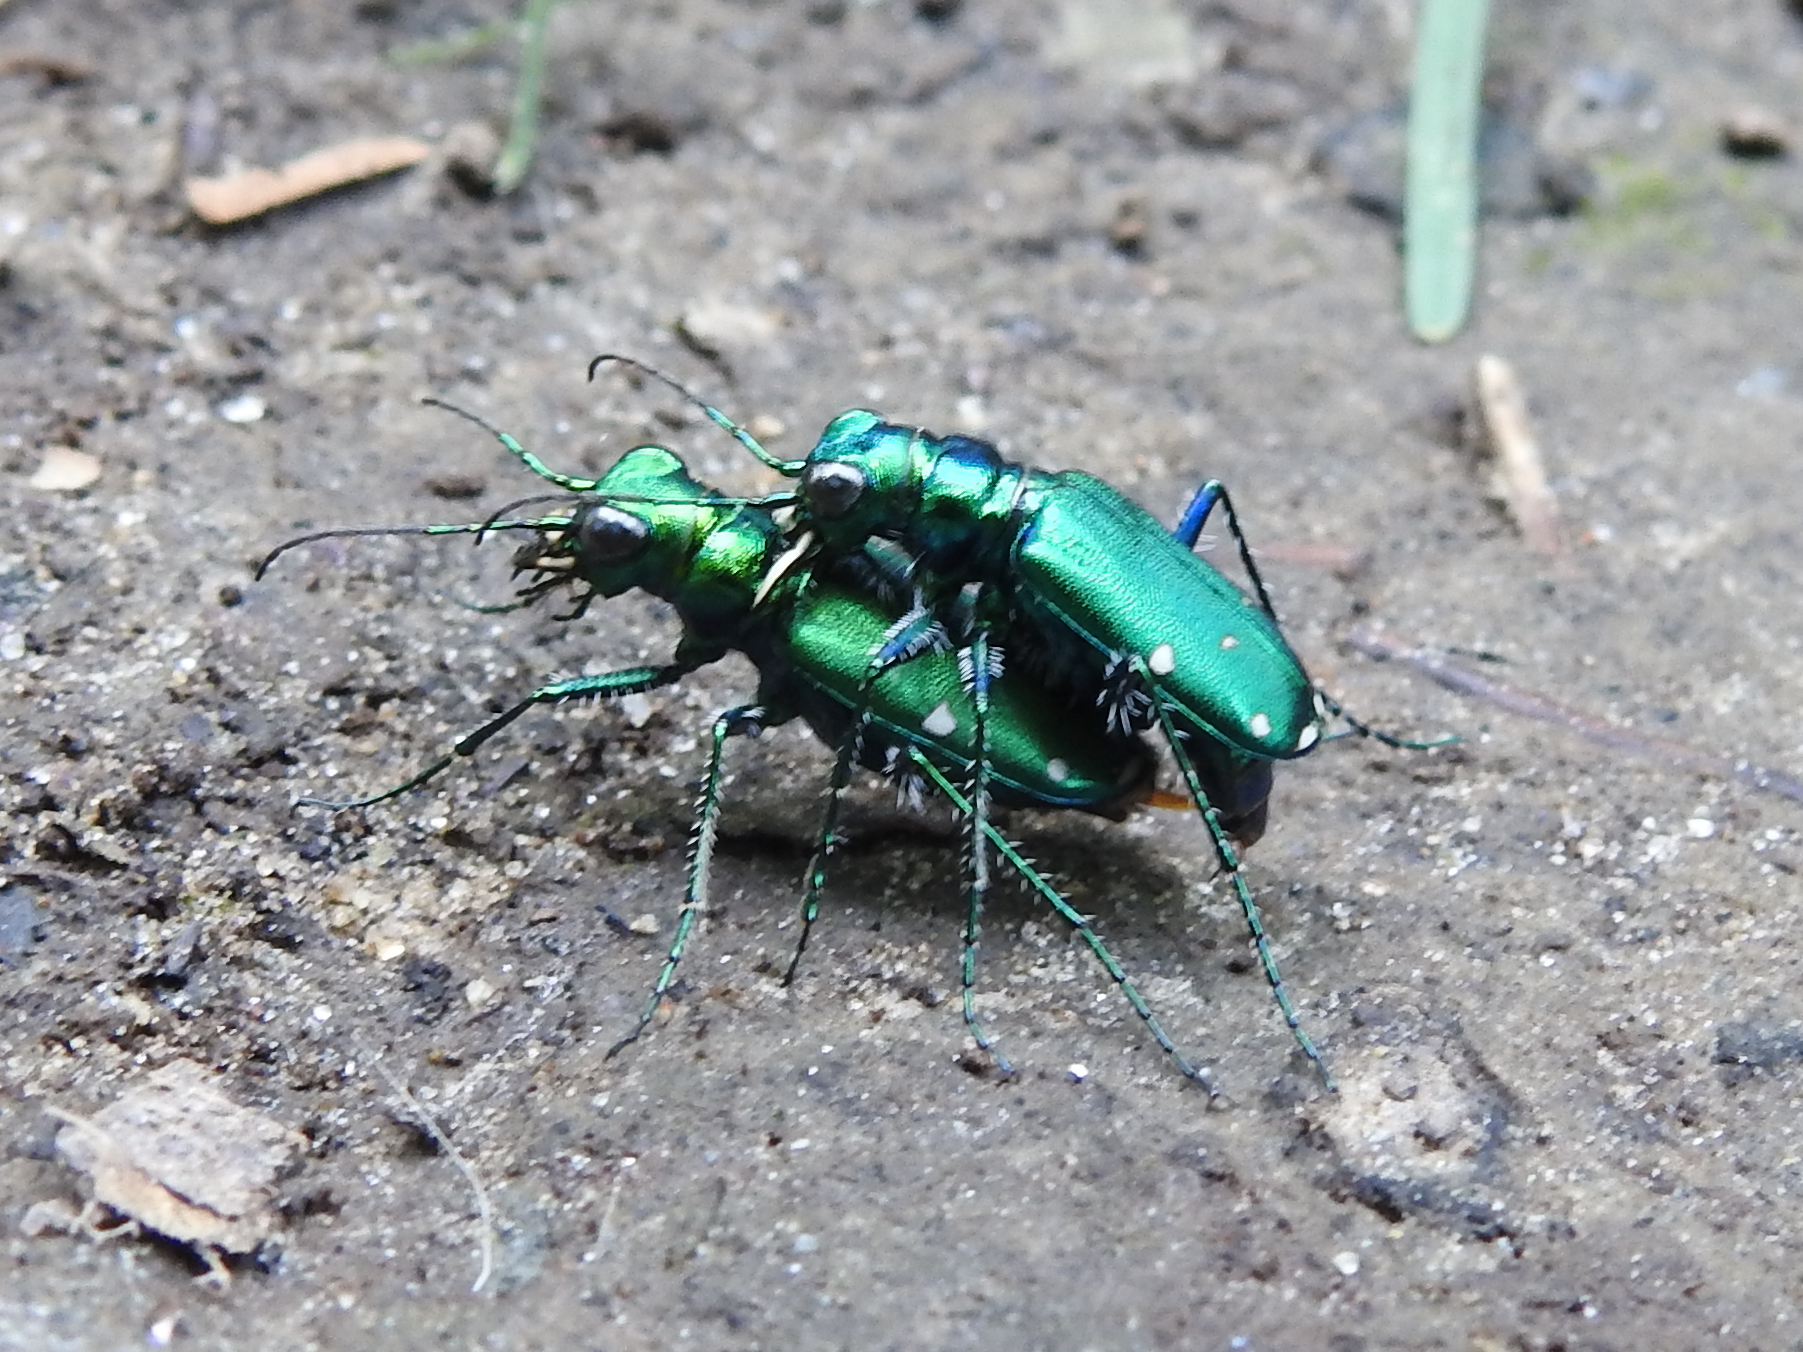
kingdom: Animalia
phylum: Arthropoda
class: Insecta
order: Coleoptera
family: Carabidae
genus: Cicindela
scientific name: Cicindela sexguttata
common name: Six-spotted tiger beetle
